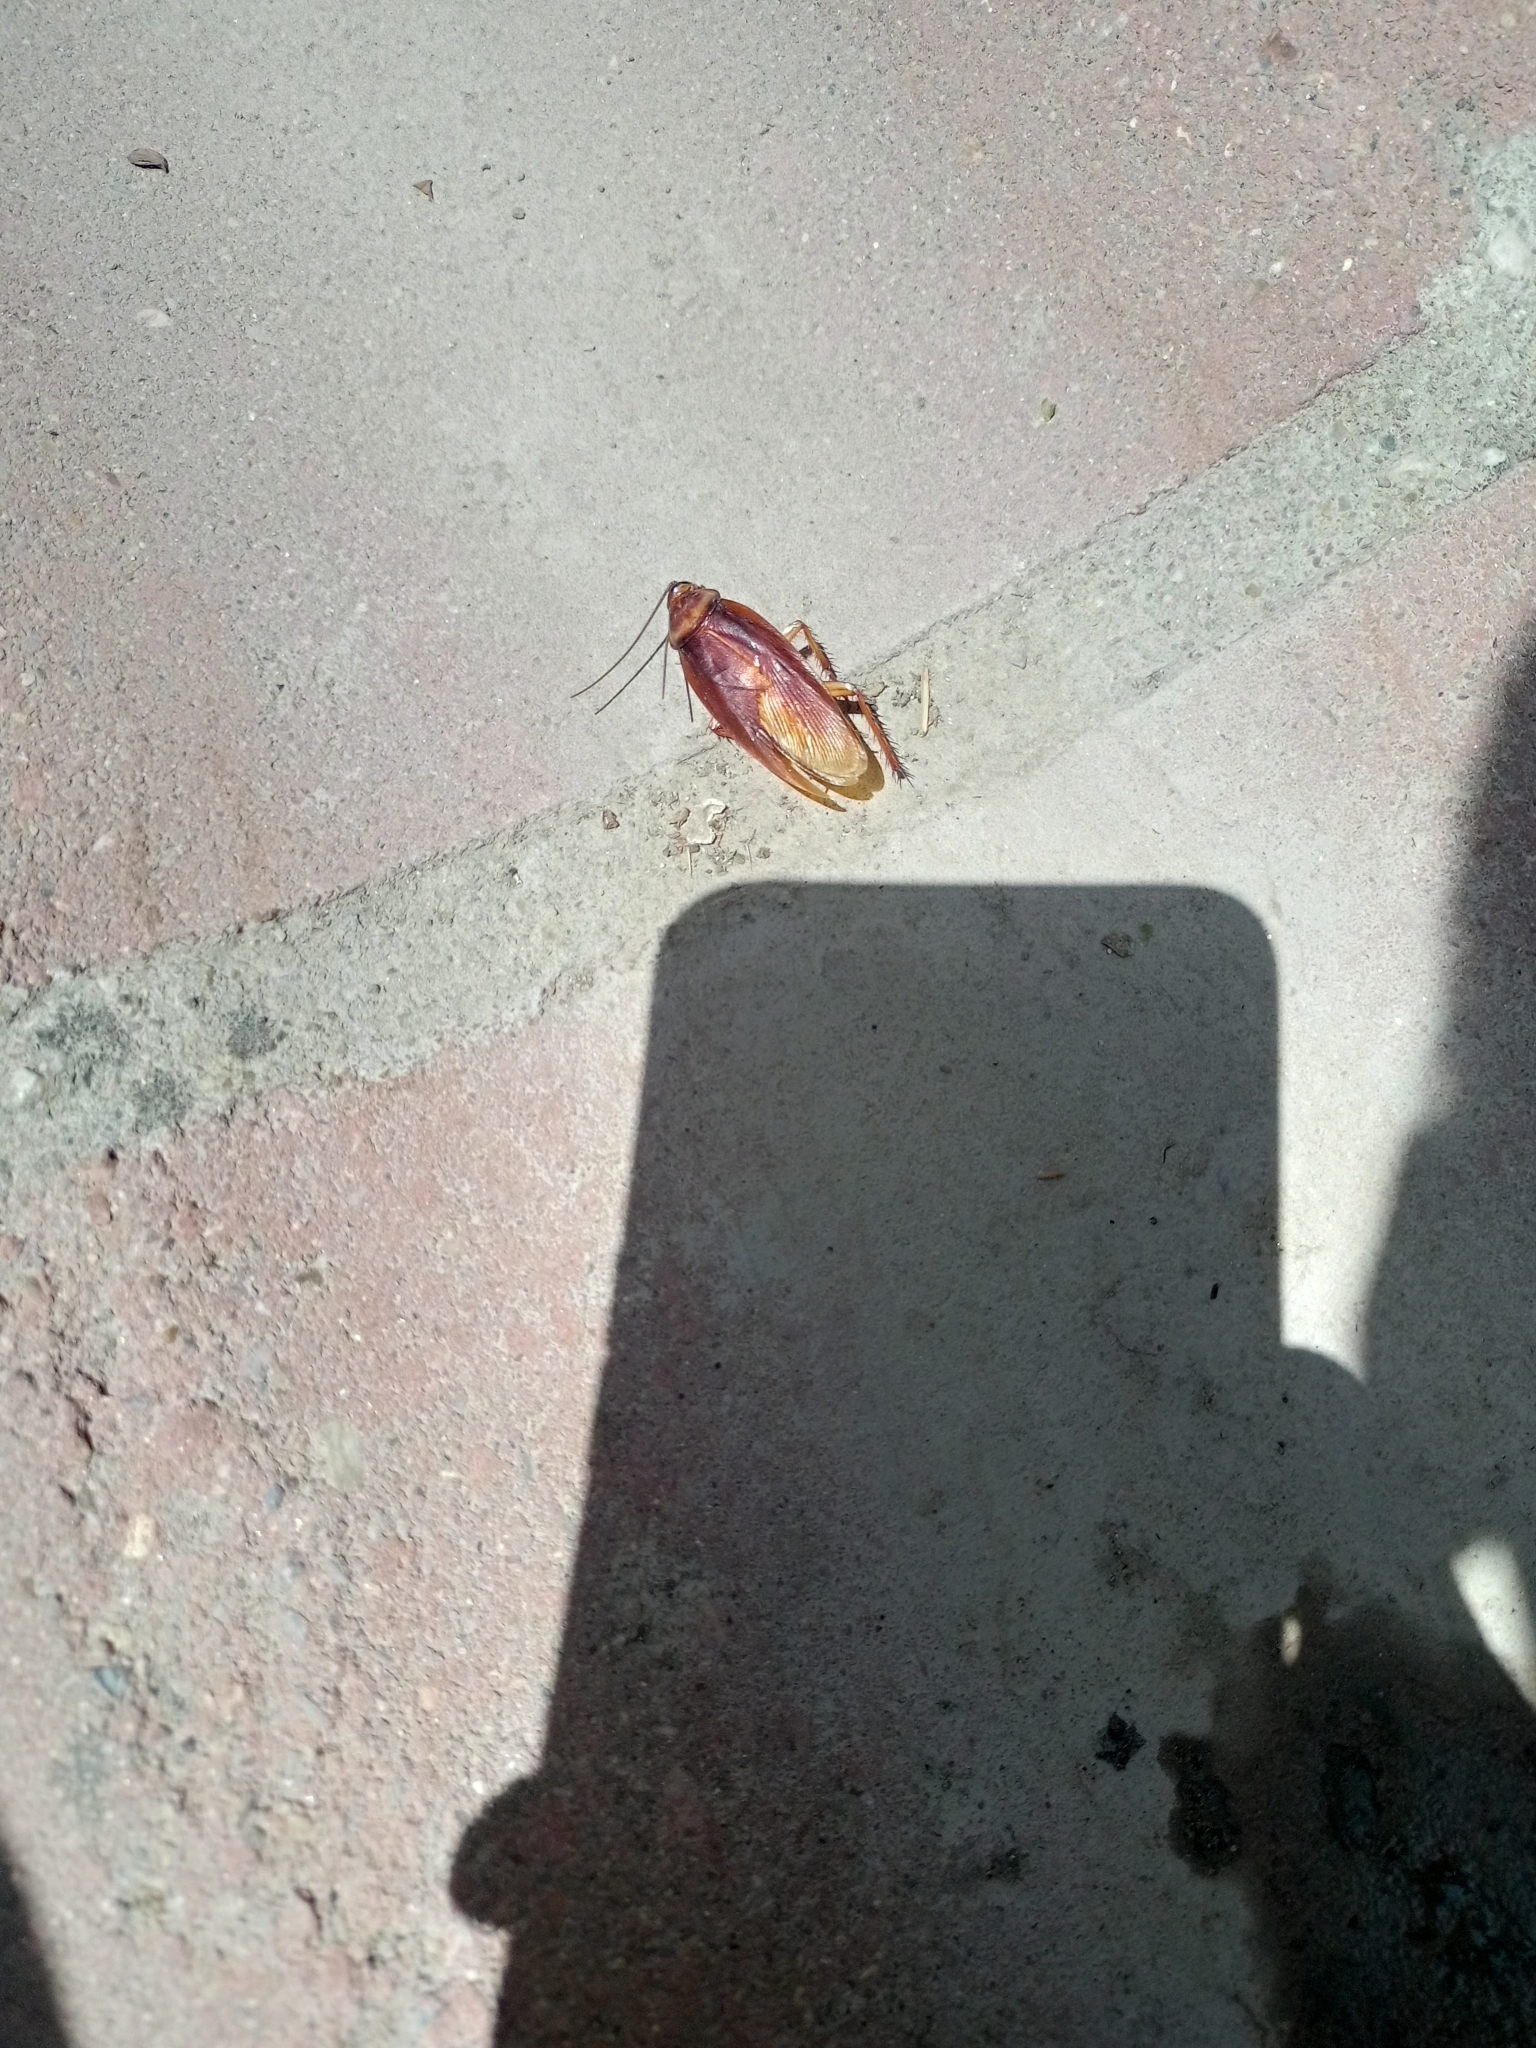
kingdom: Animalia
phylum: Arthropoda
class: Insecta
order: Blattodea
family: Blattidae
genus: Periplaneta
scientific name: Periplaneta americana
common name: American cockroach
